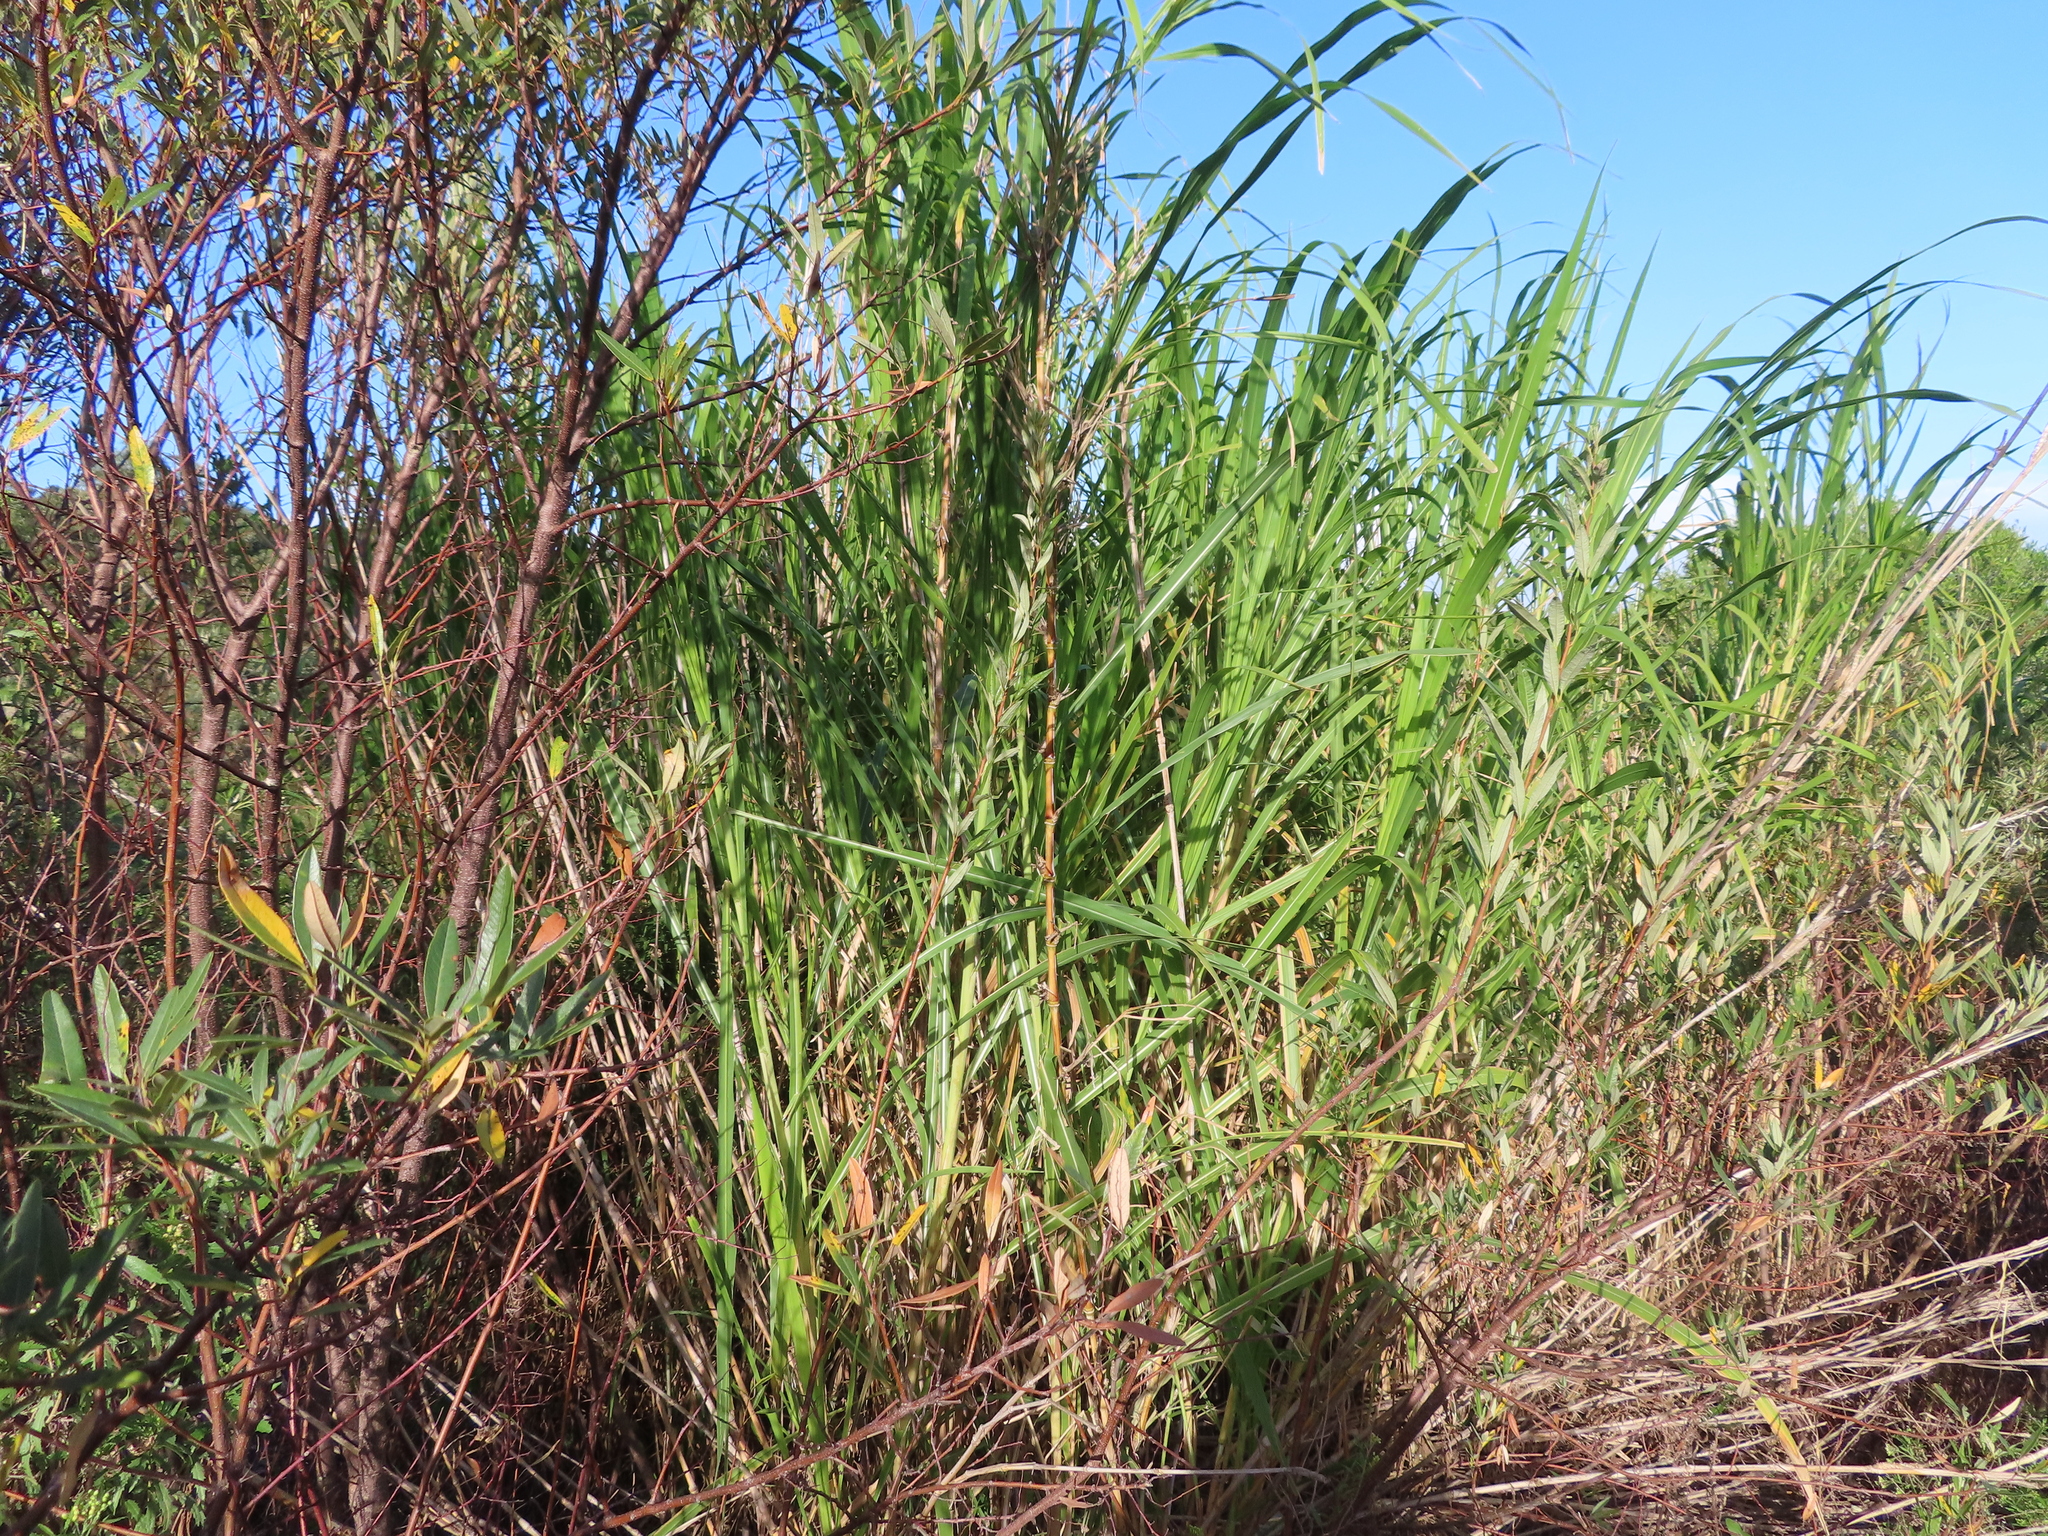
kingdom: Plantae
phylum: Tracheophyta
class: Liliopsida
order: Poales
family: Poaceae
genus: Arundo
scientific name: Arundo donax
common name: Giant reed
